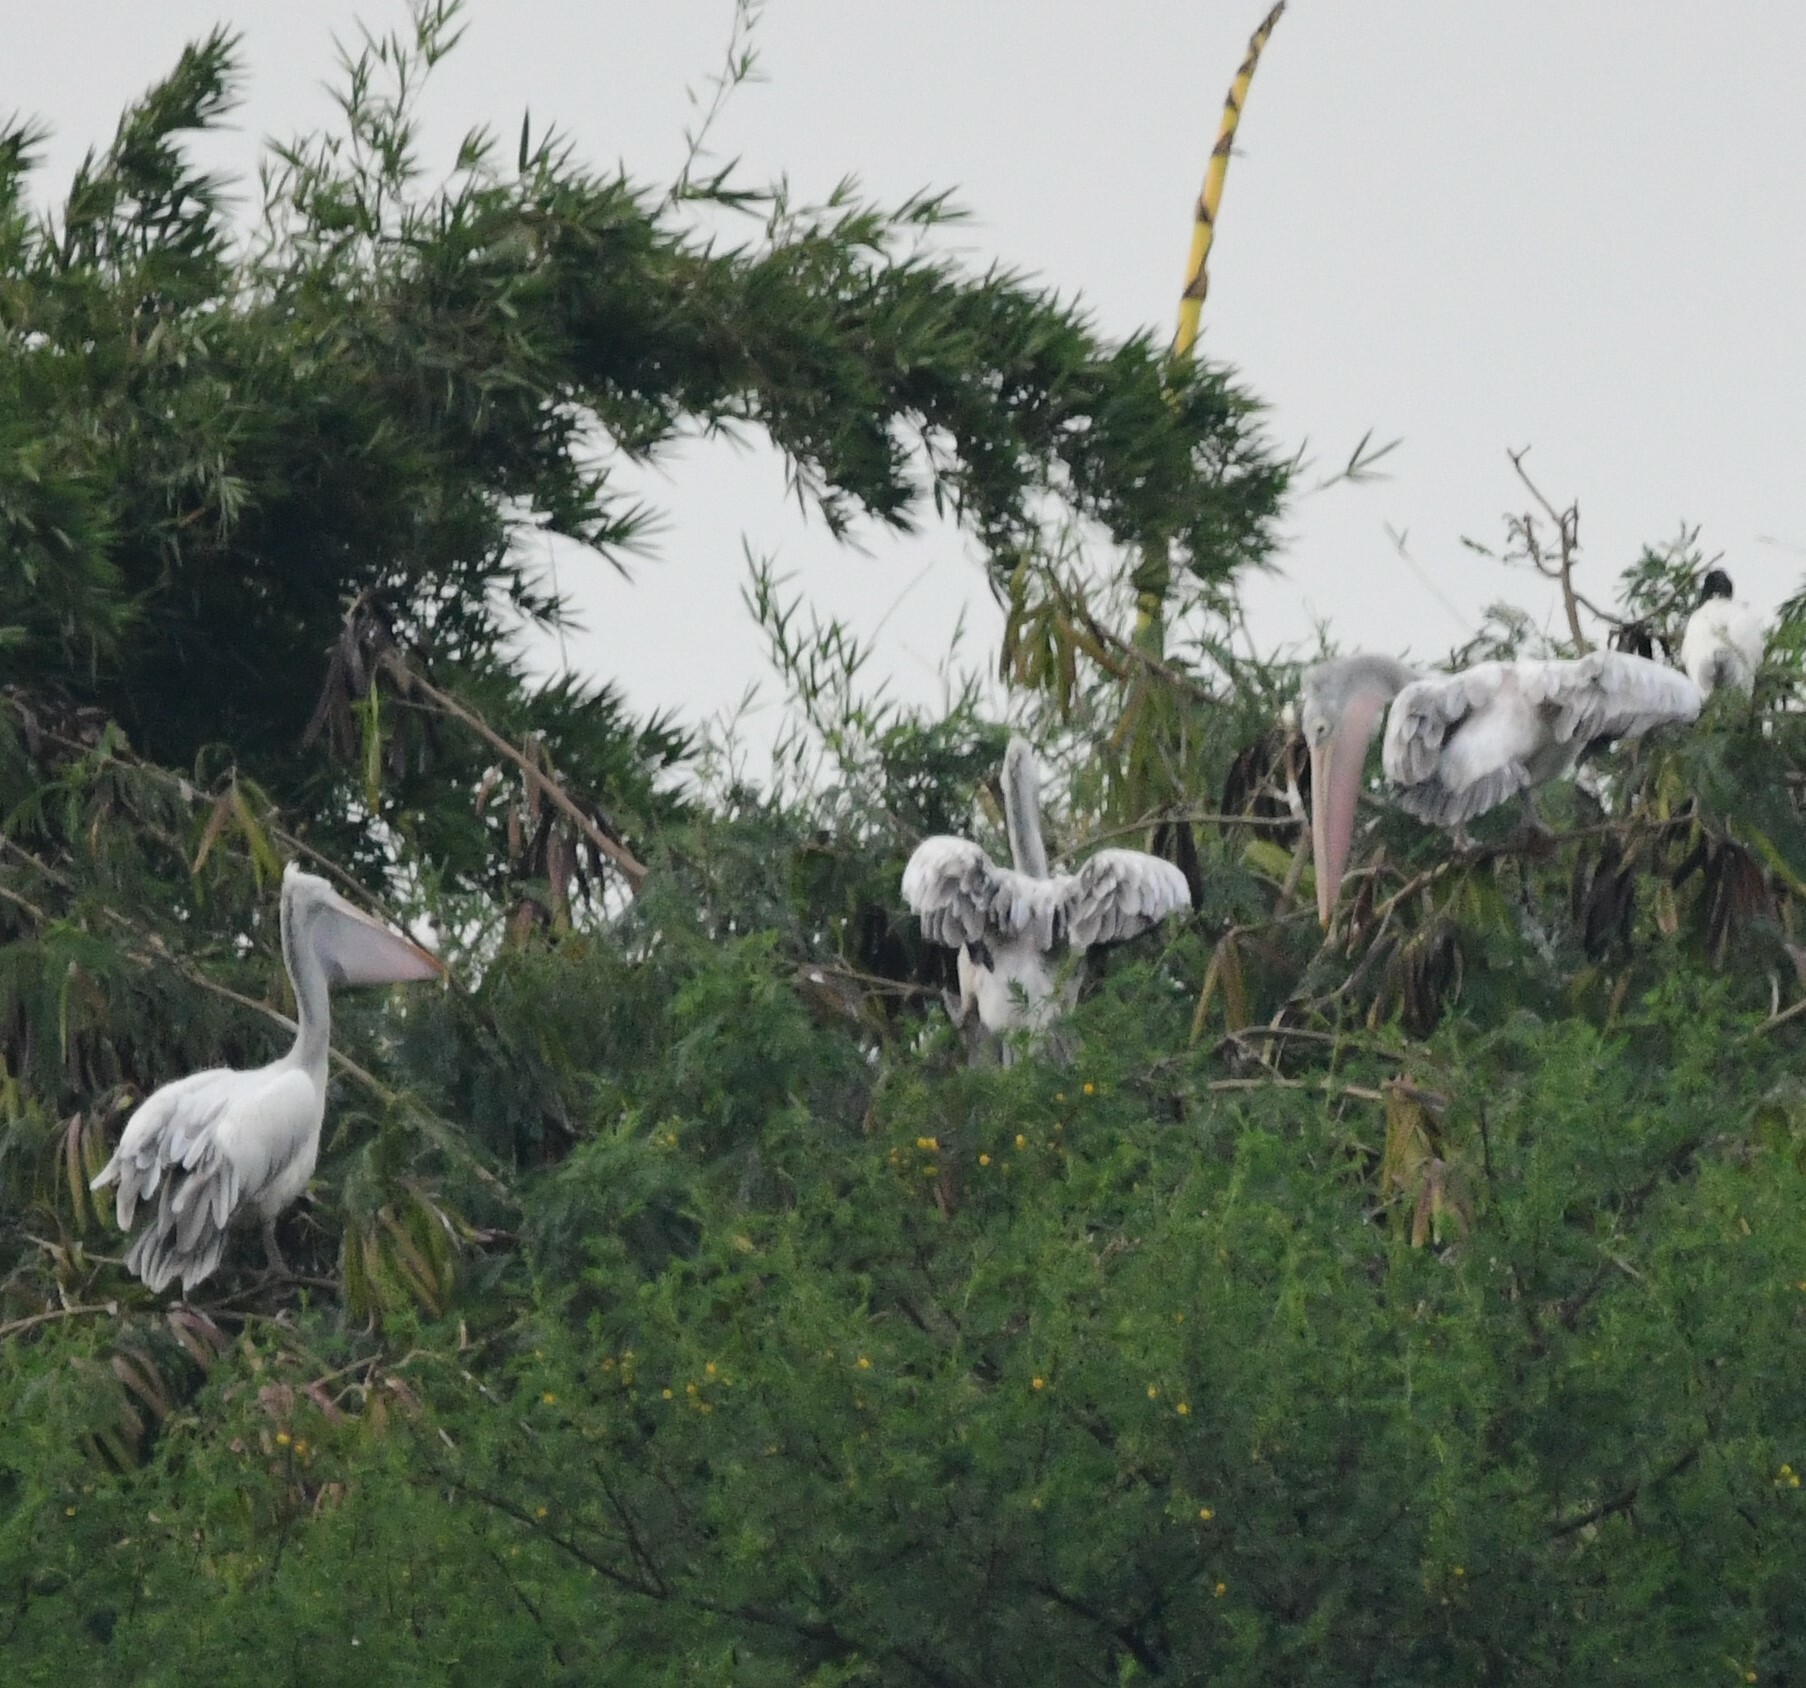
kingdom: Animalia
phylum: Chordata
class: Aves
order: Pelecaniformes
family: Pelecanidae
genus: Pelecanus
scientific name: Pelecanus philippensis
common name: Spot-billed pelican
